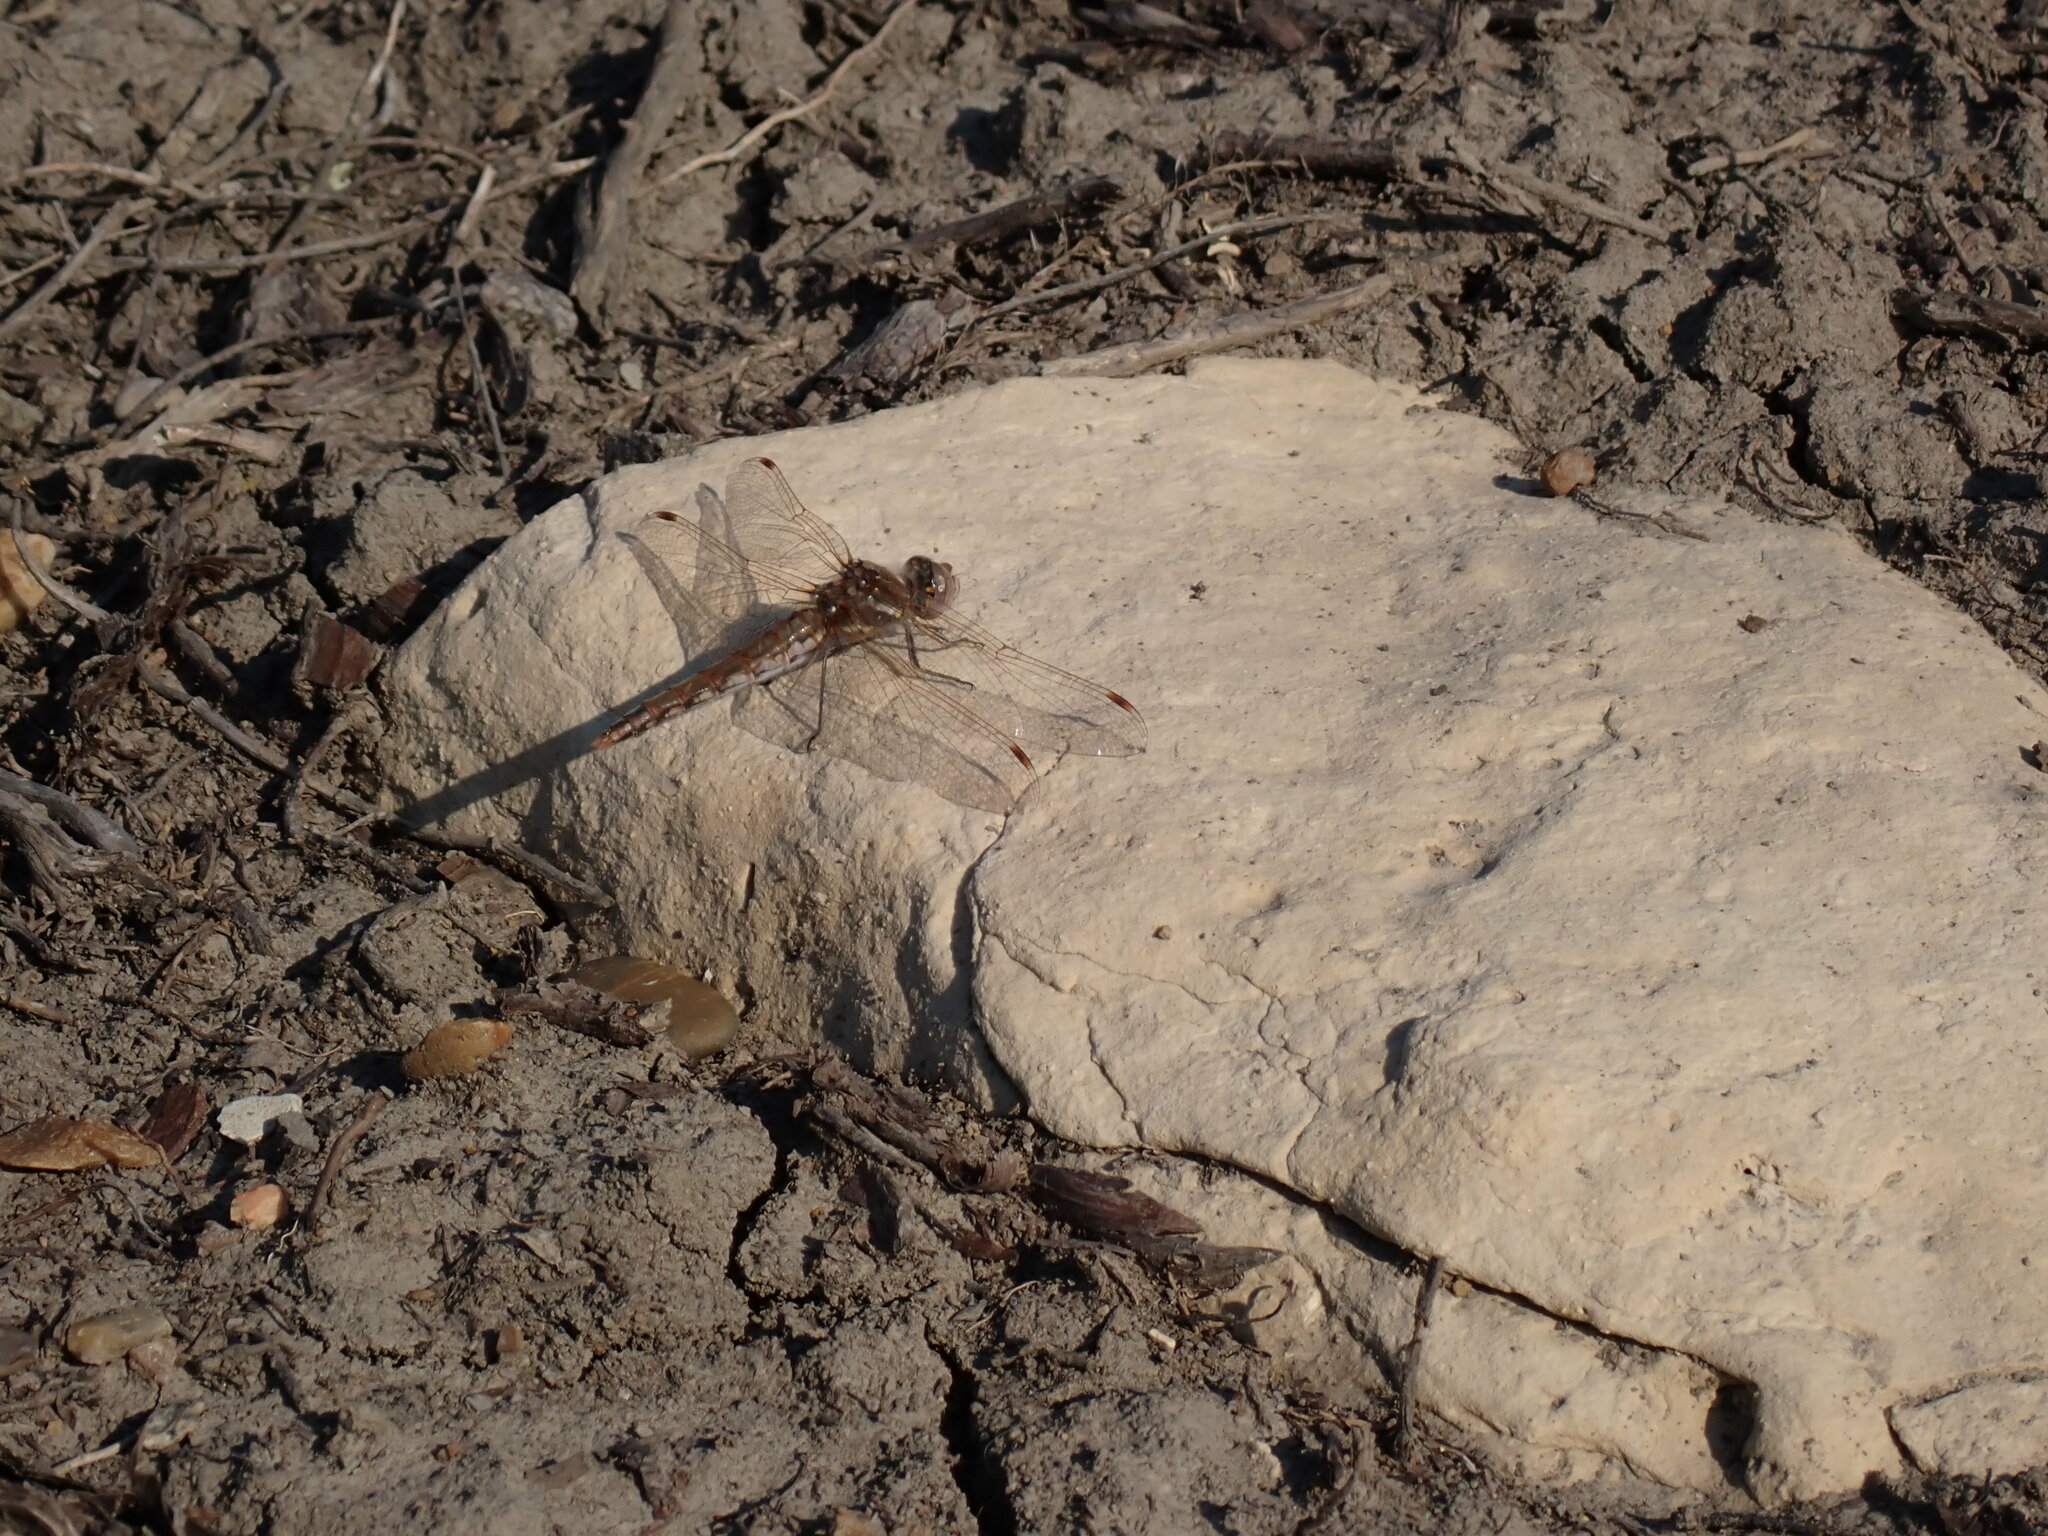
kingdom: Animalia
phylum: Arthropoda
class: Insecta
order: Odonata
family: Libellulidae
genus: Sympetrum
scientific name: Sympetrum corruptum
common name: Variegated meadowhawk
